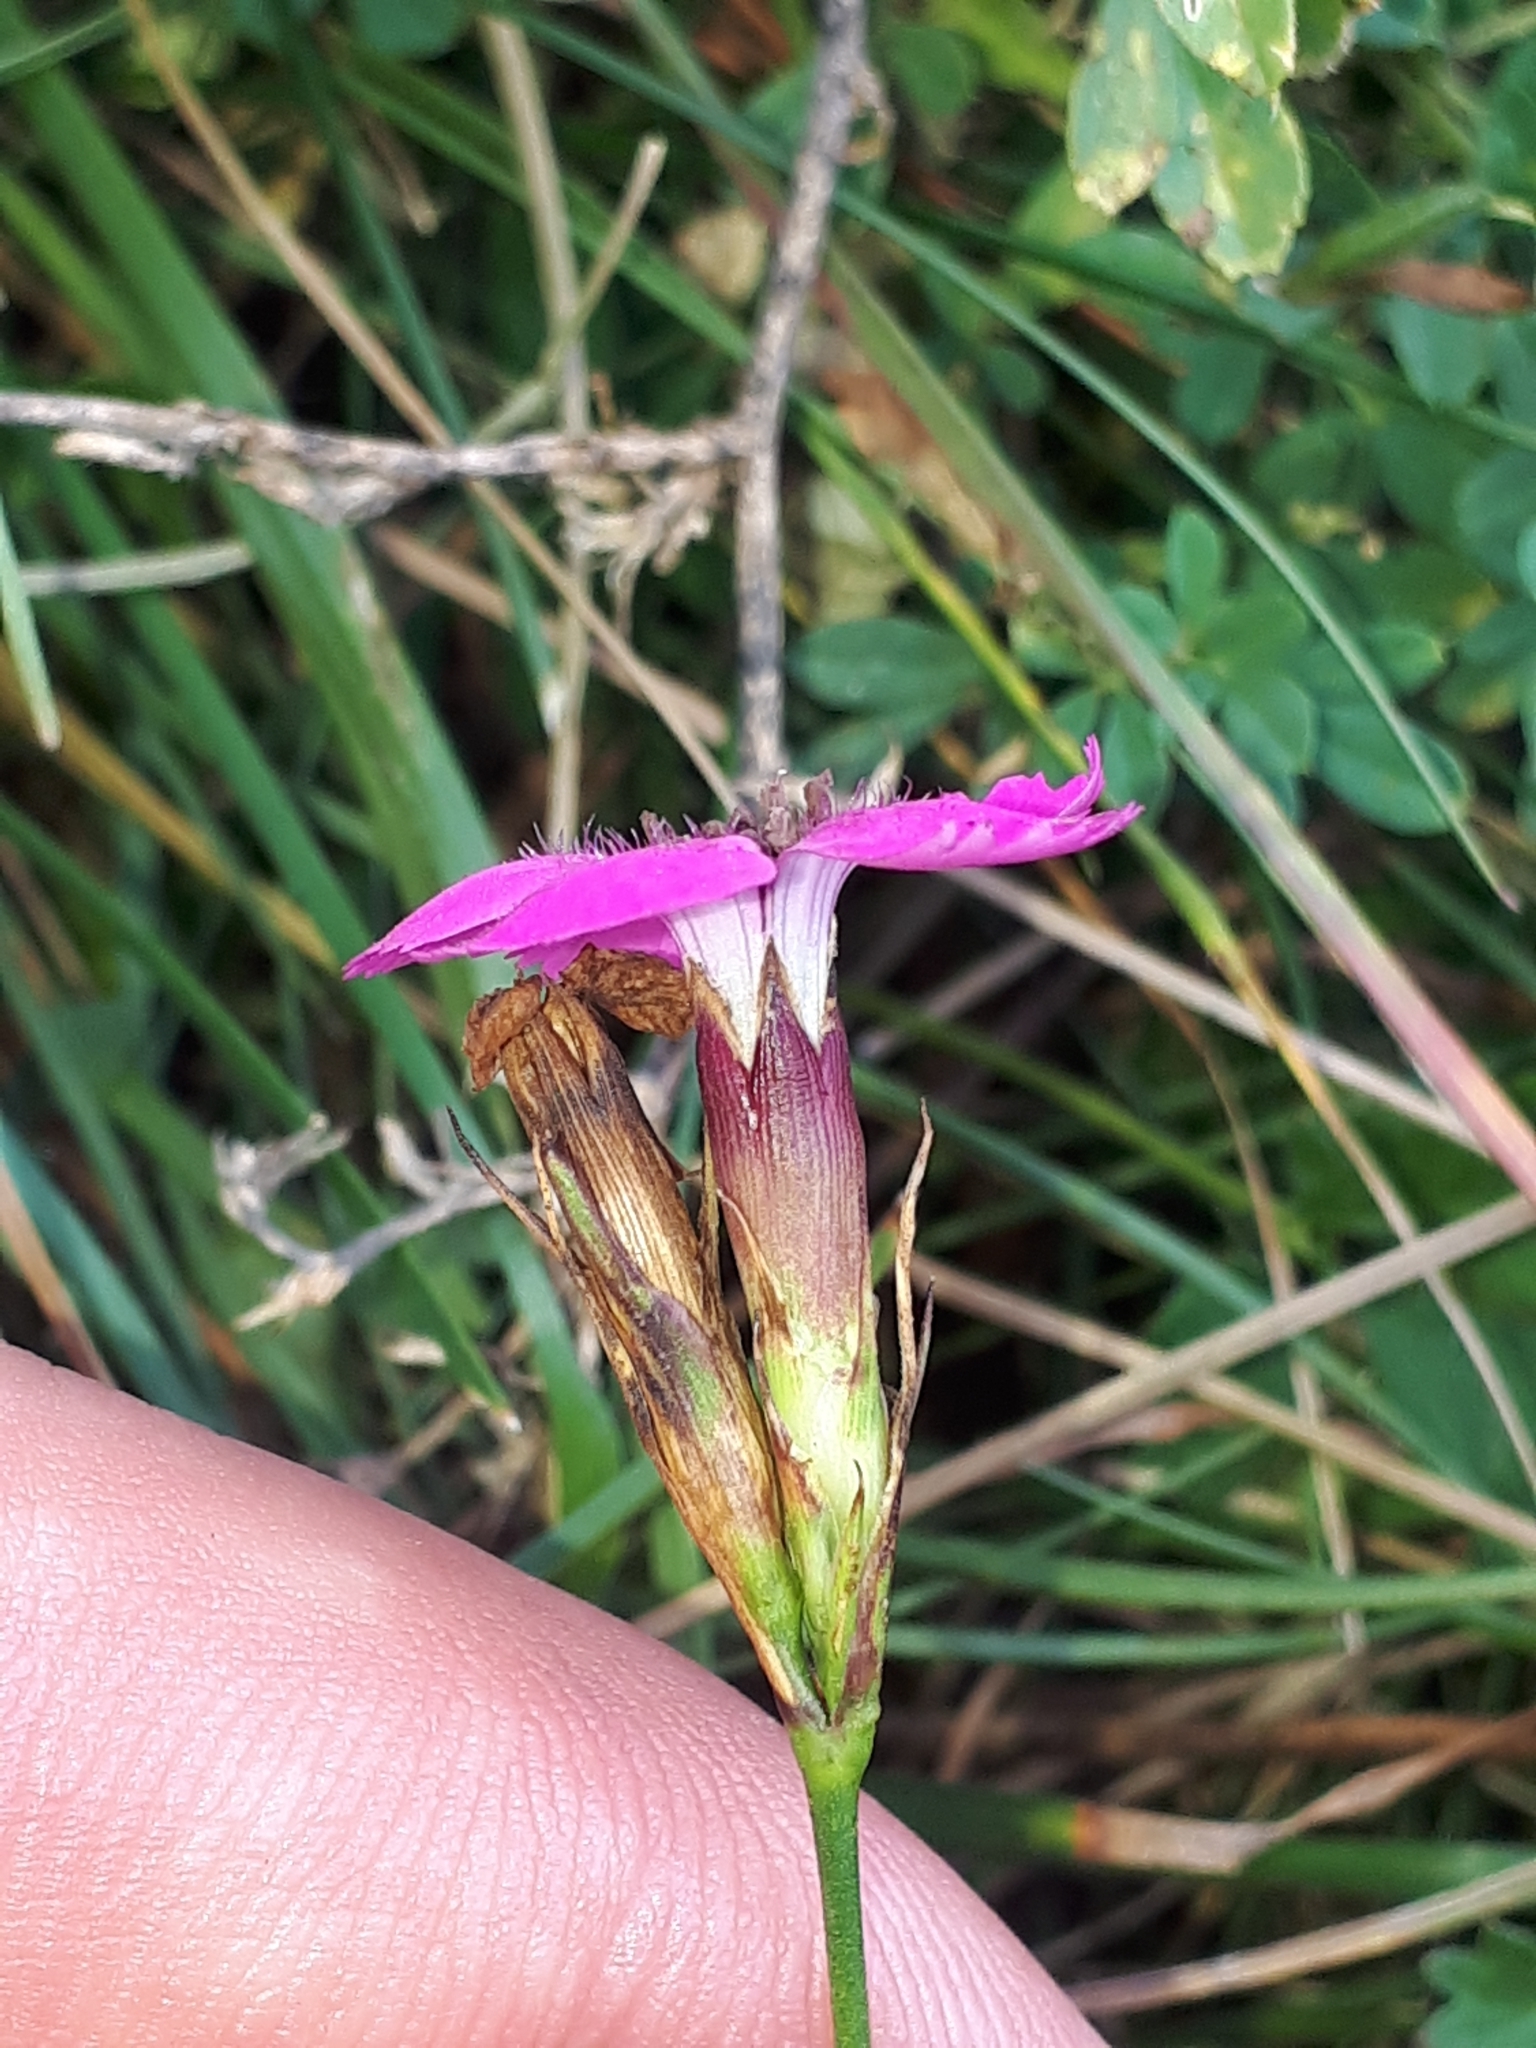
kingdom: Plantae
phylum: Tracheophyta
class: Magnoliopsida
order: Caryophyllales
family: Caryophyllaceae
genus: Dianthus
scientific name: Dianthus carthusianorum
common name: Carthusian pink
